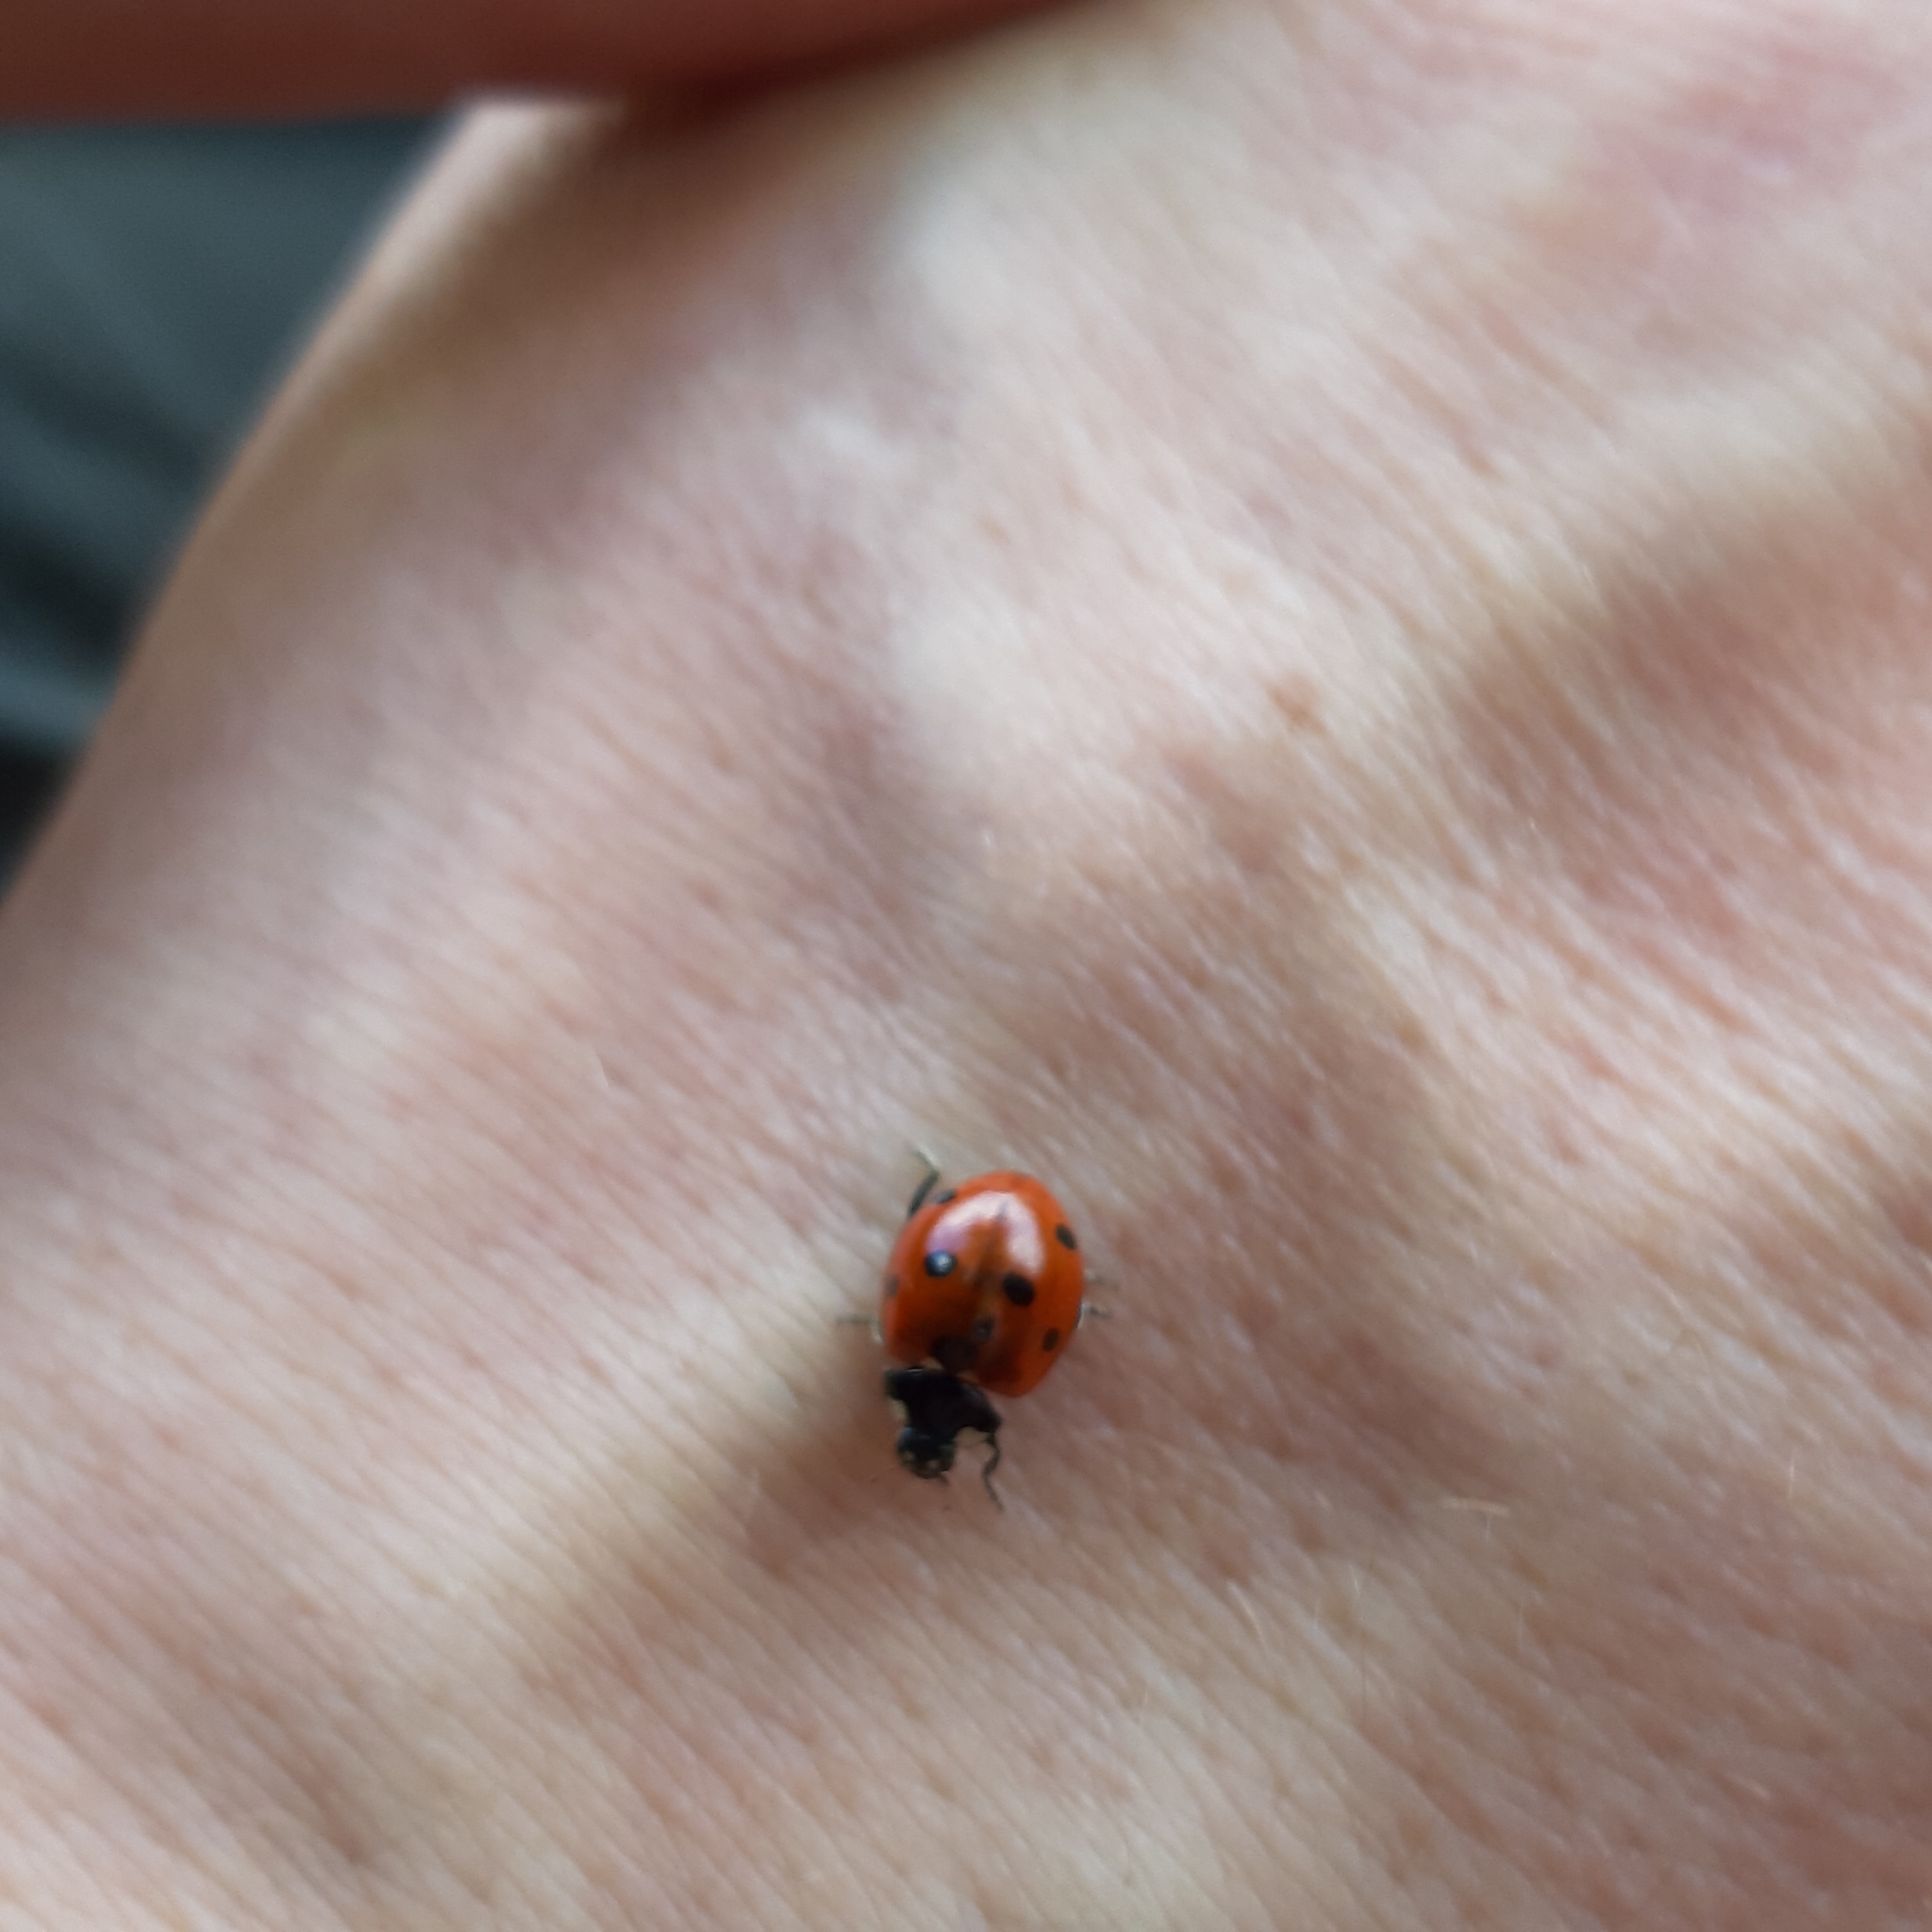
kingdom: Animalia
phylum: Arthropoda
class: Insecta
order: Coleoptera
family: Coccinellidae
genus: Coccinella
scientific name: Coccinella septempunctata
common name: Sevenspotted lady beetle
